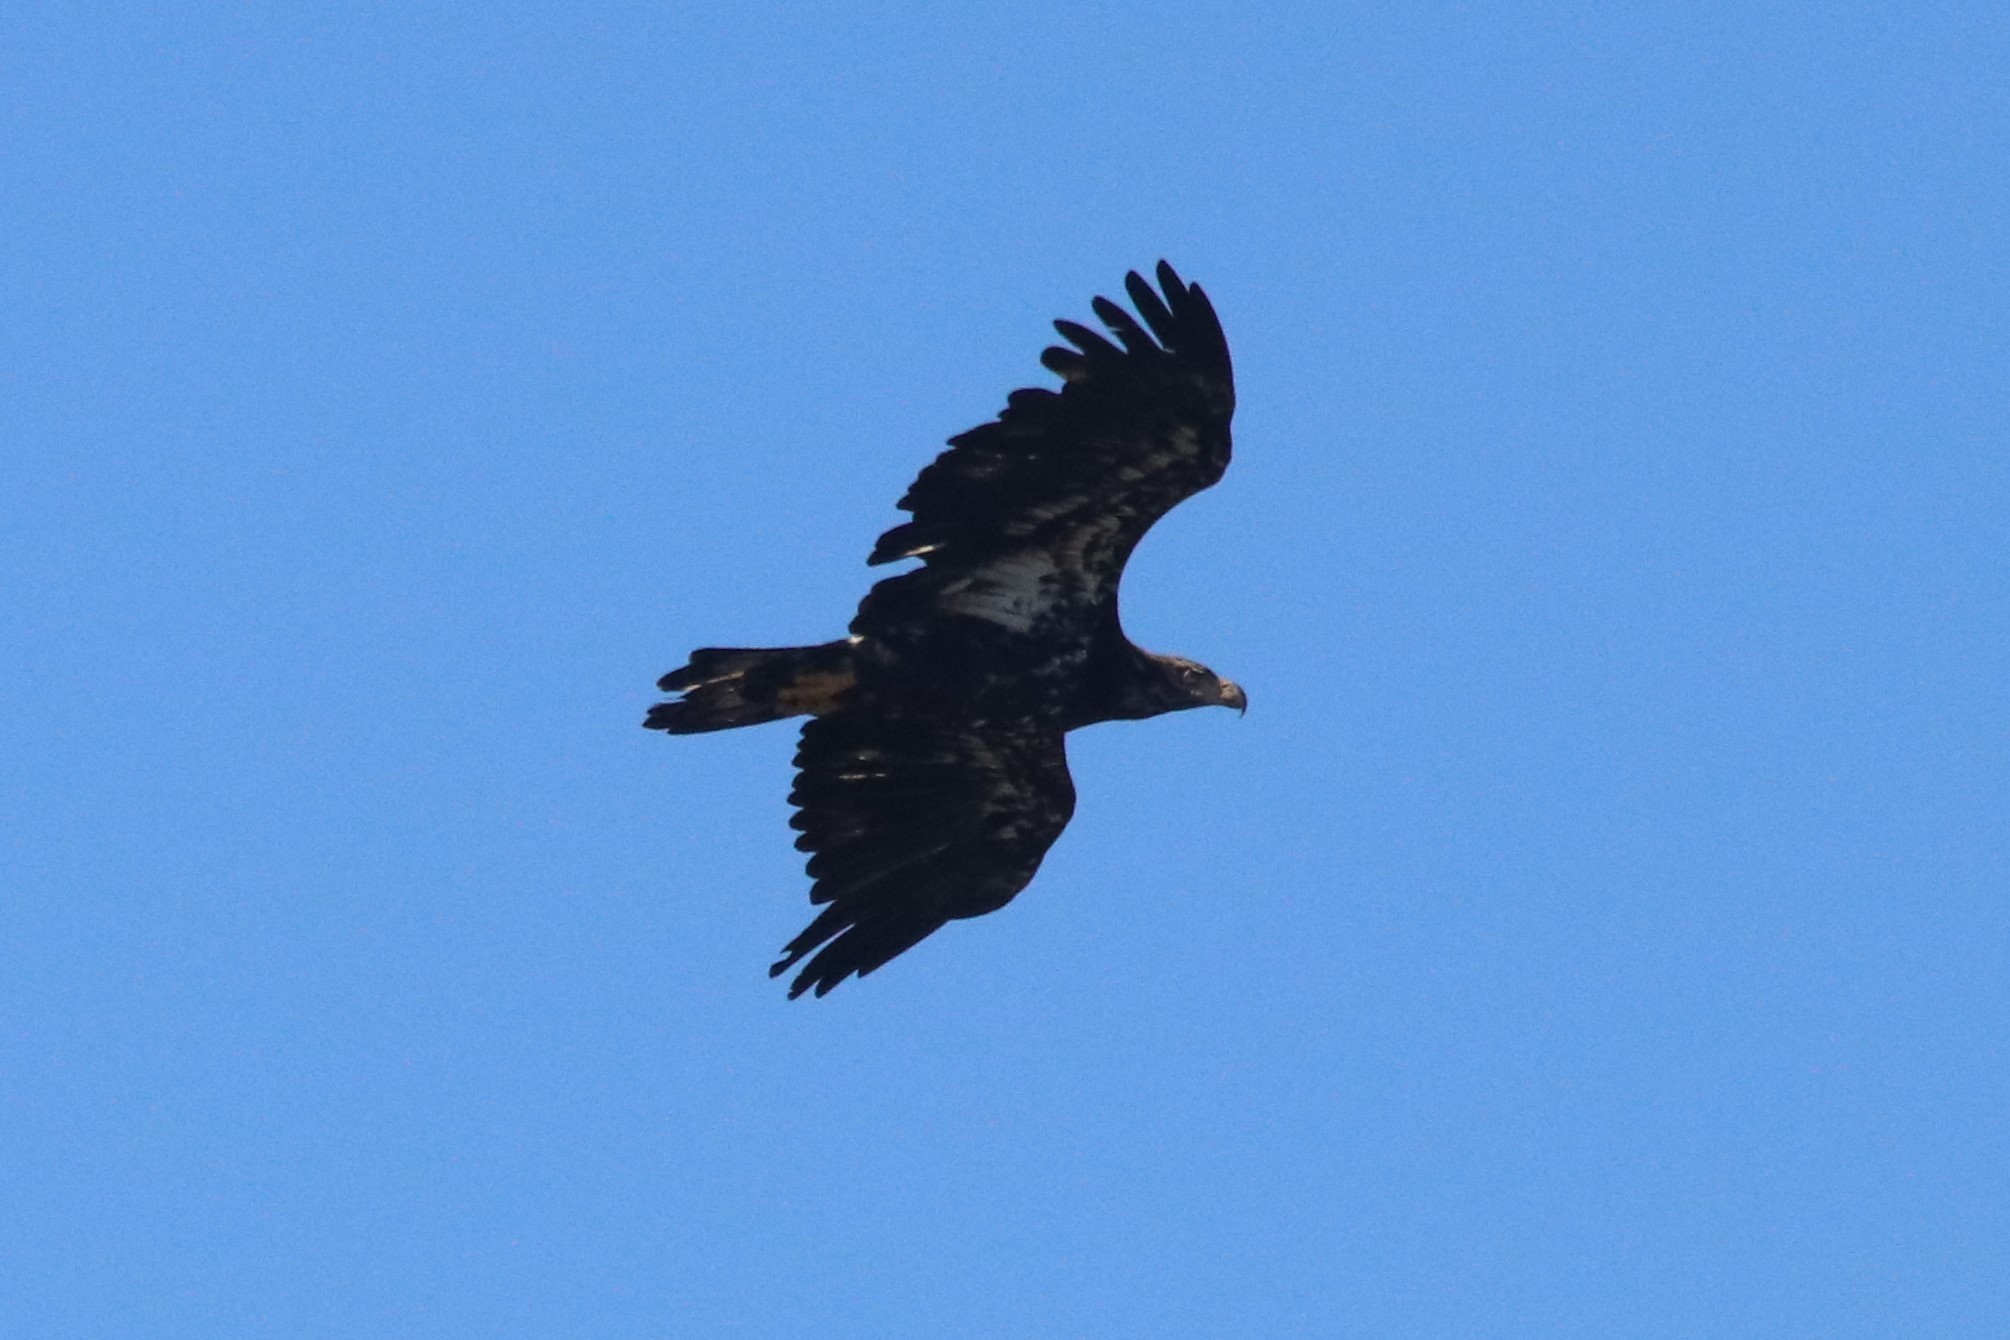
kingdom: Animalia
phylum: Chordata
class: Aves
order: Accipitriformes
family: Accipitridae
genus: Haliaeetus
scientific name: Haliaeetus leucocephalus
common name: Bald eagle
